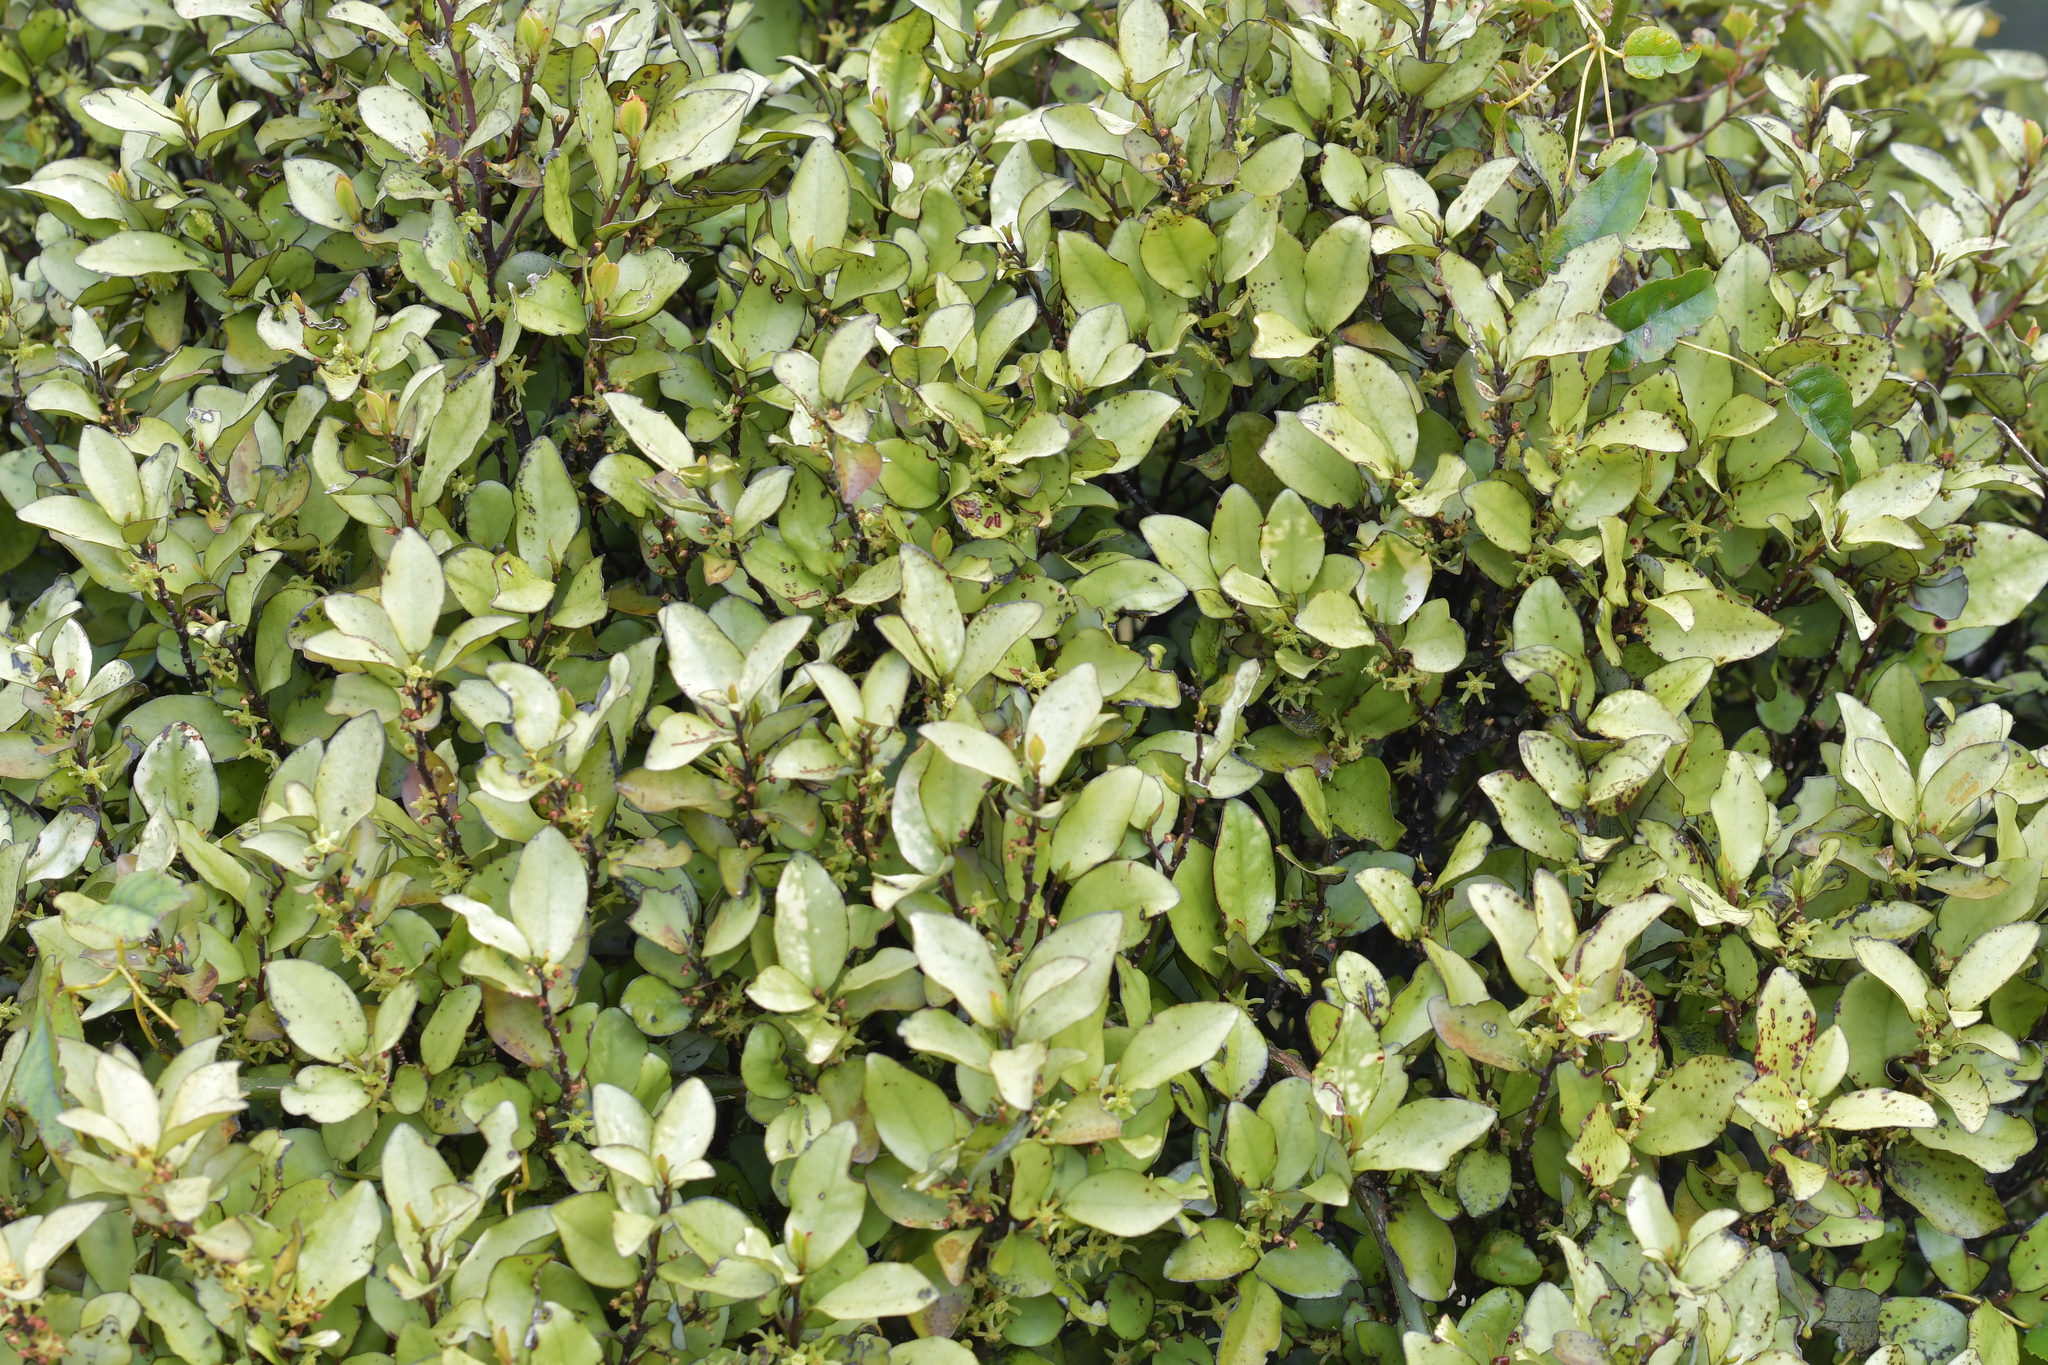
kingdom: Plantae
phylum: Tracheophyta
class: Magnoliopsida
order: Canellales
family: Winteraceae
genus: Pseudowintera
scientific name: Pseudowintera colorata
